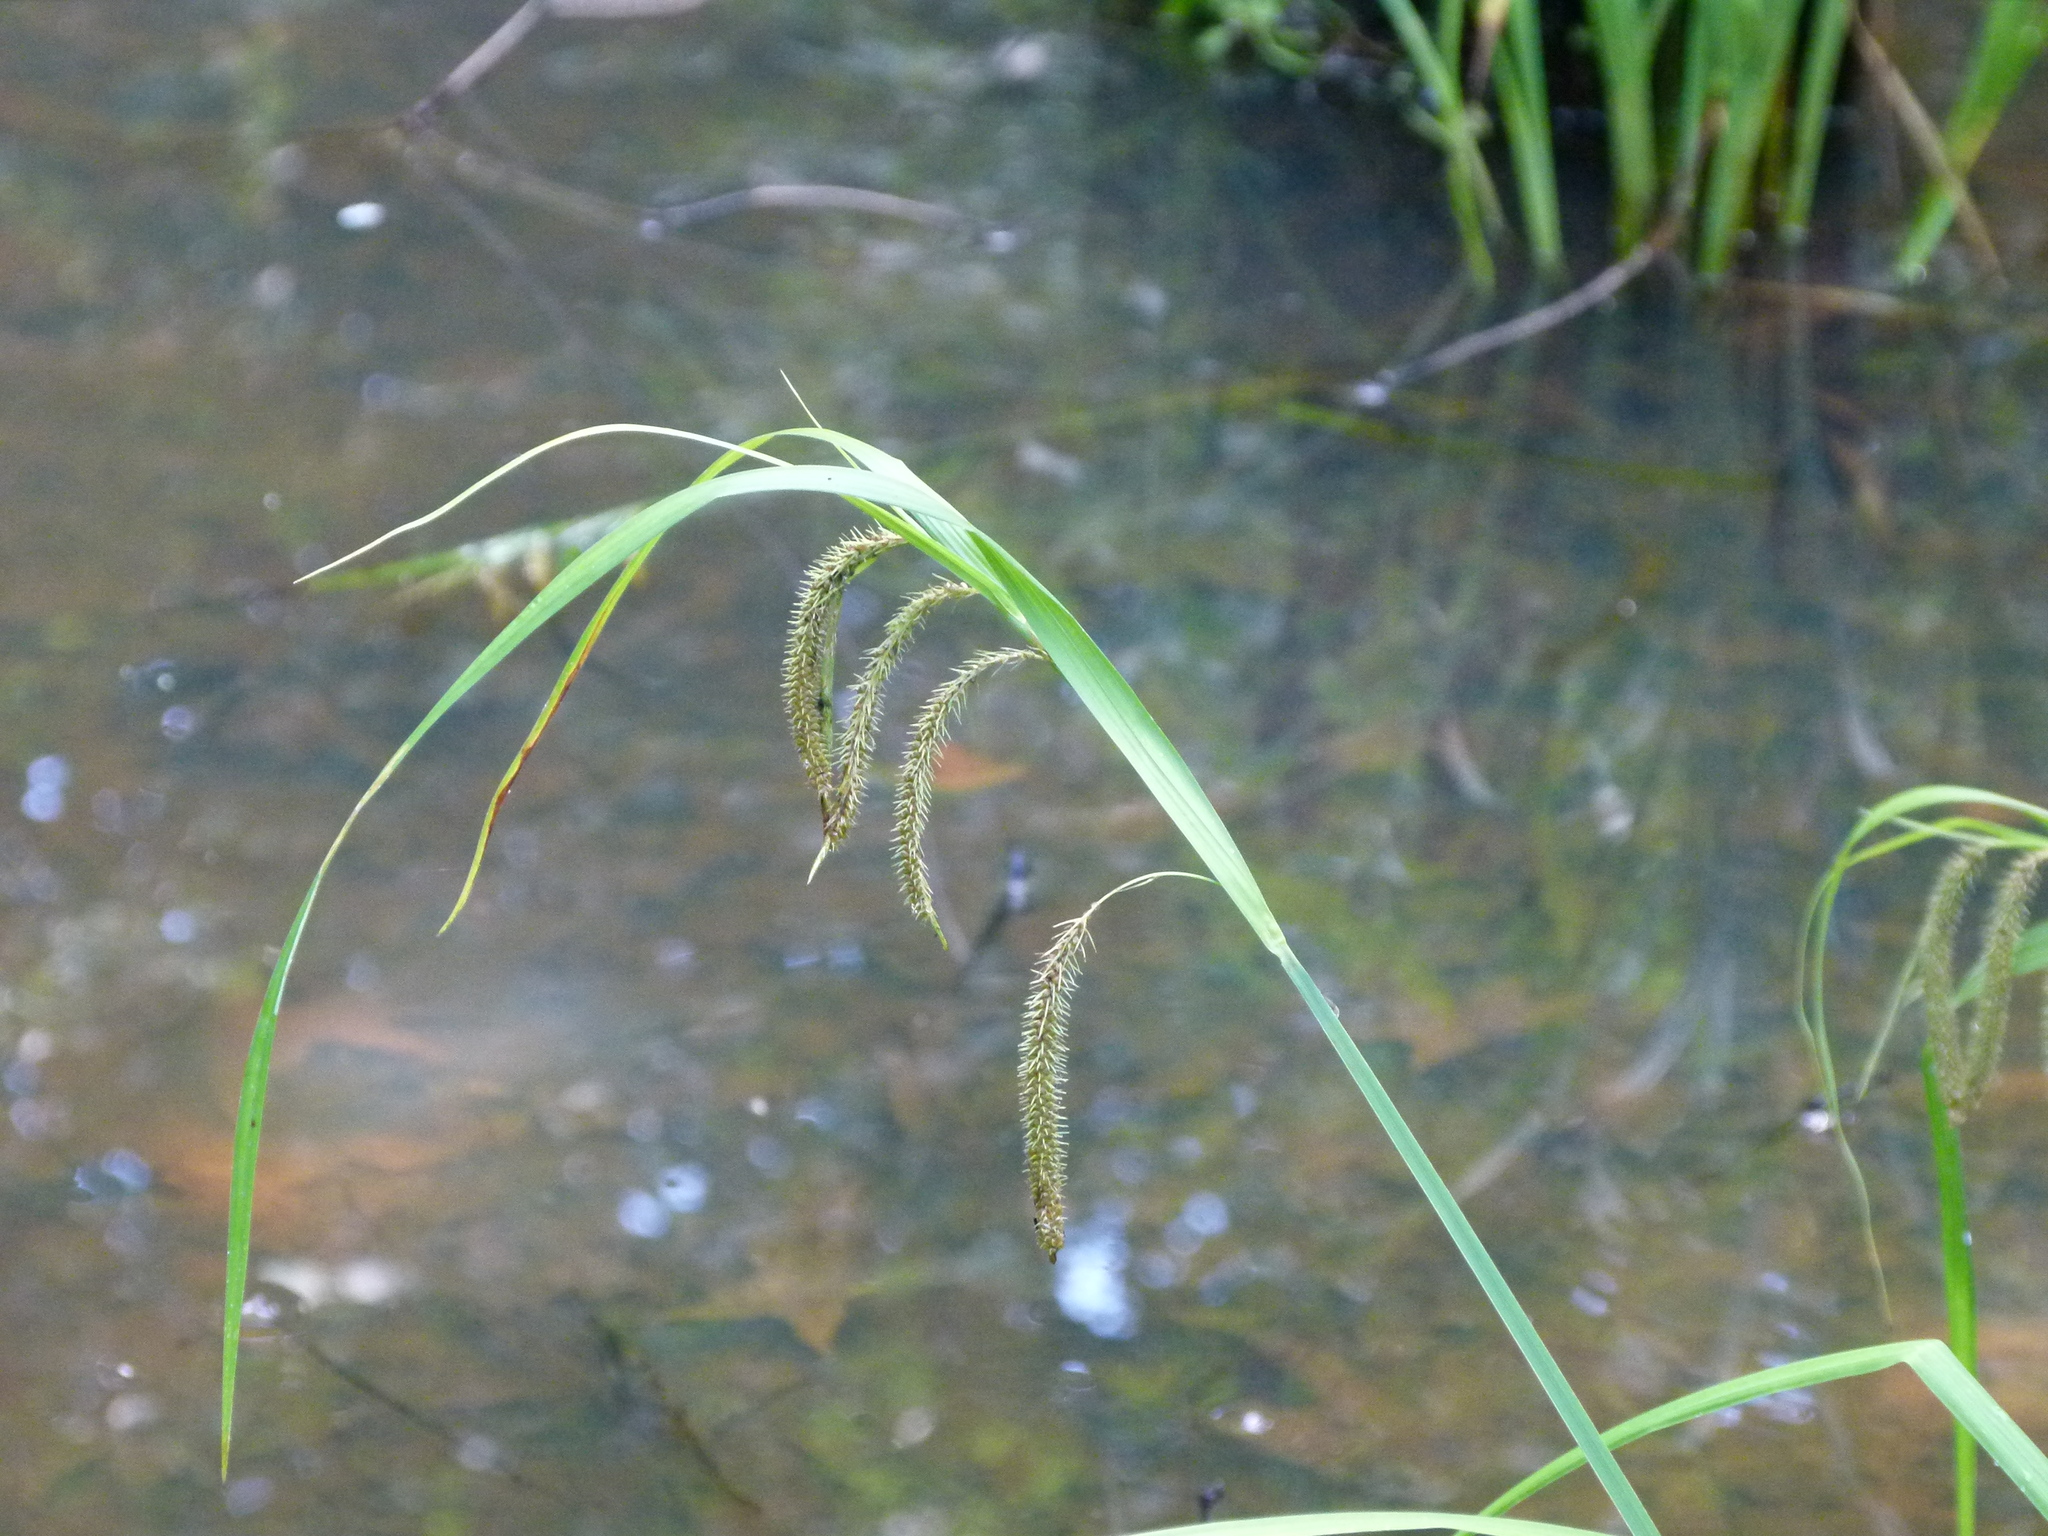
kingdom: Plantae
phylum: Tracheophyta
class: Liliopsida
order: Poales
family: Cyperaceae
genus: Carex
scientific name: Carex crinita
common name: Fringed sedge
